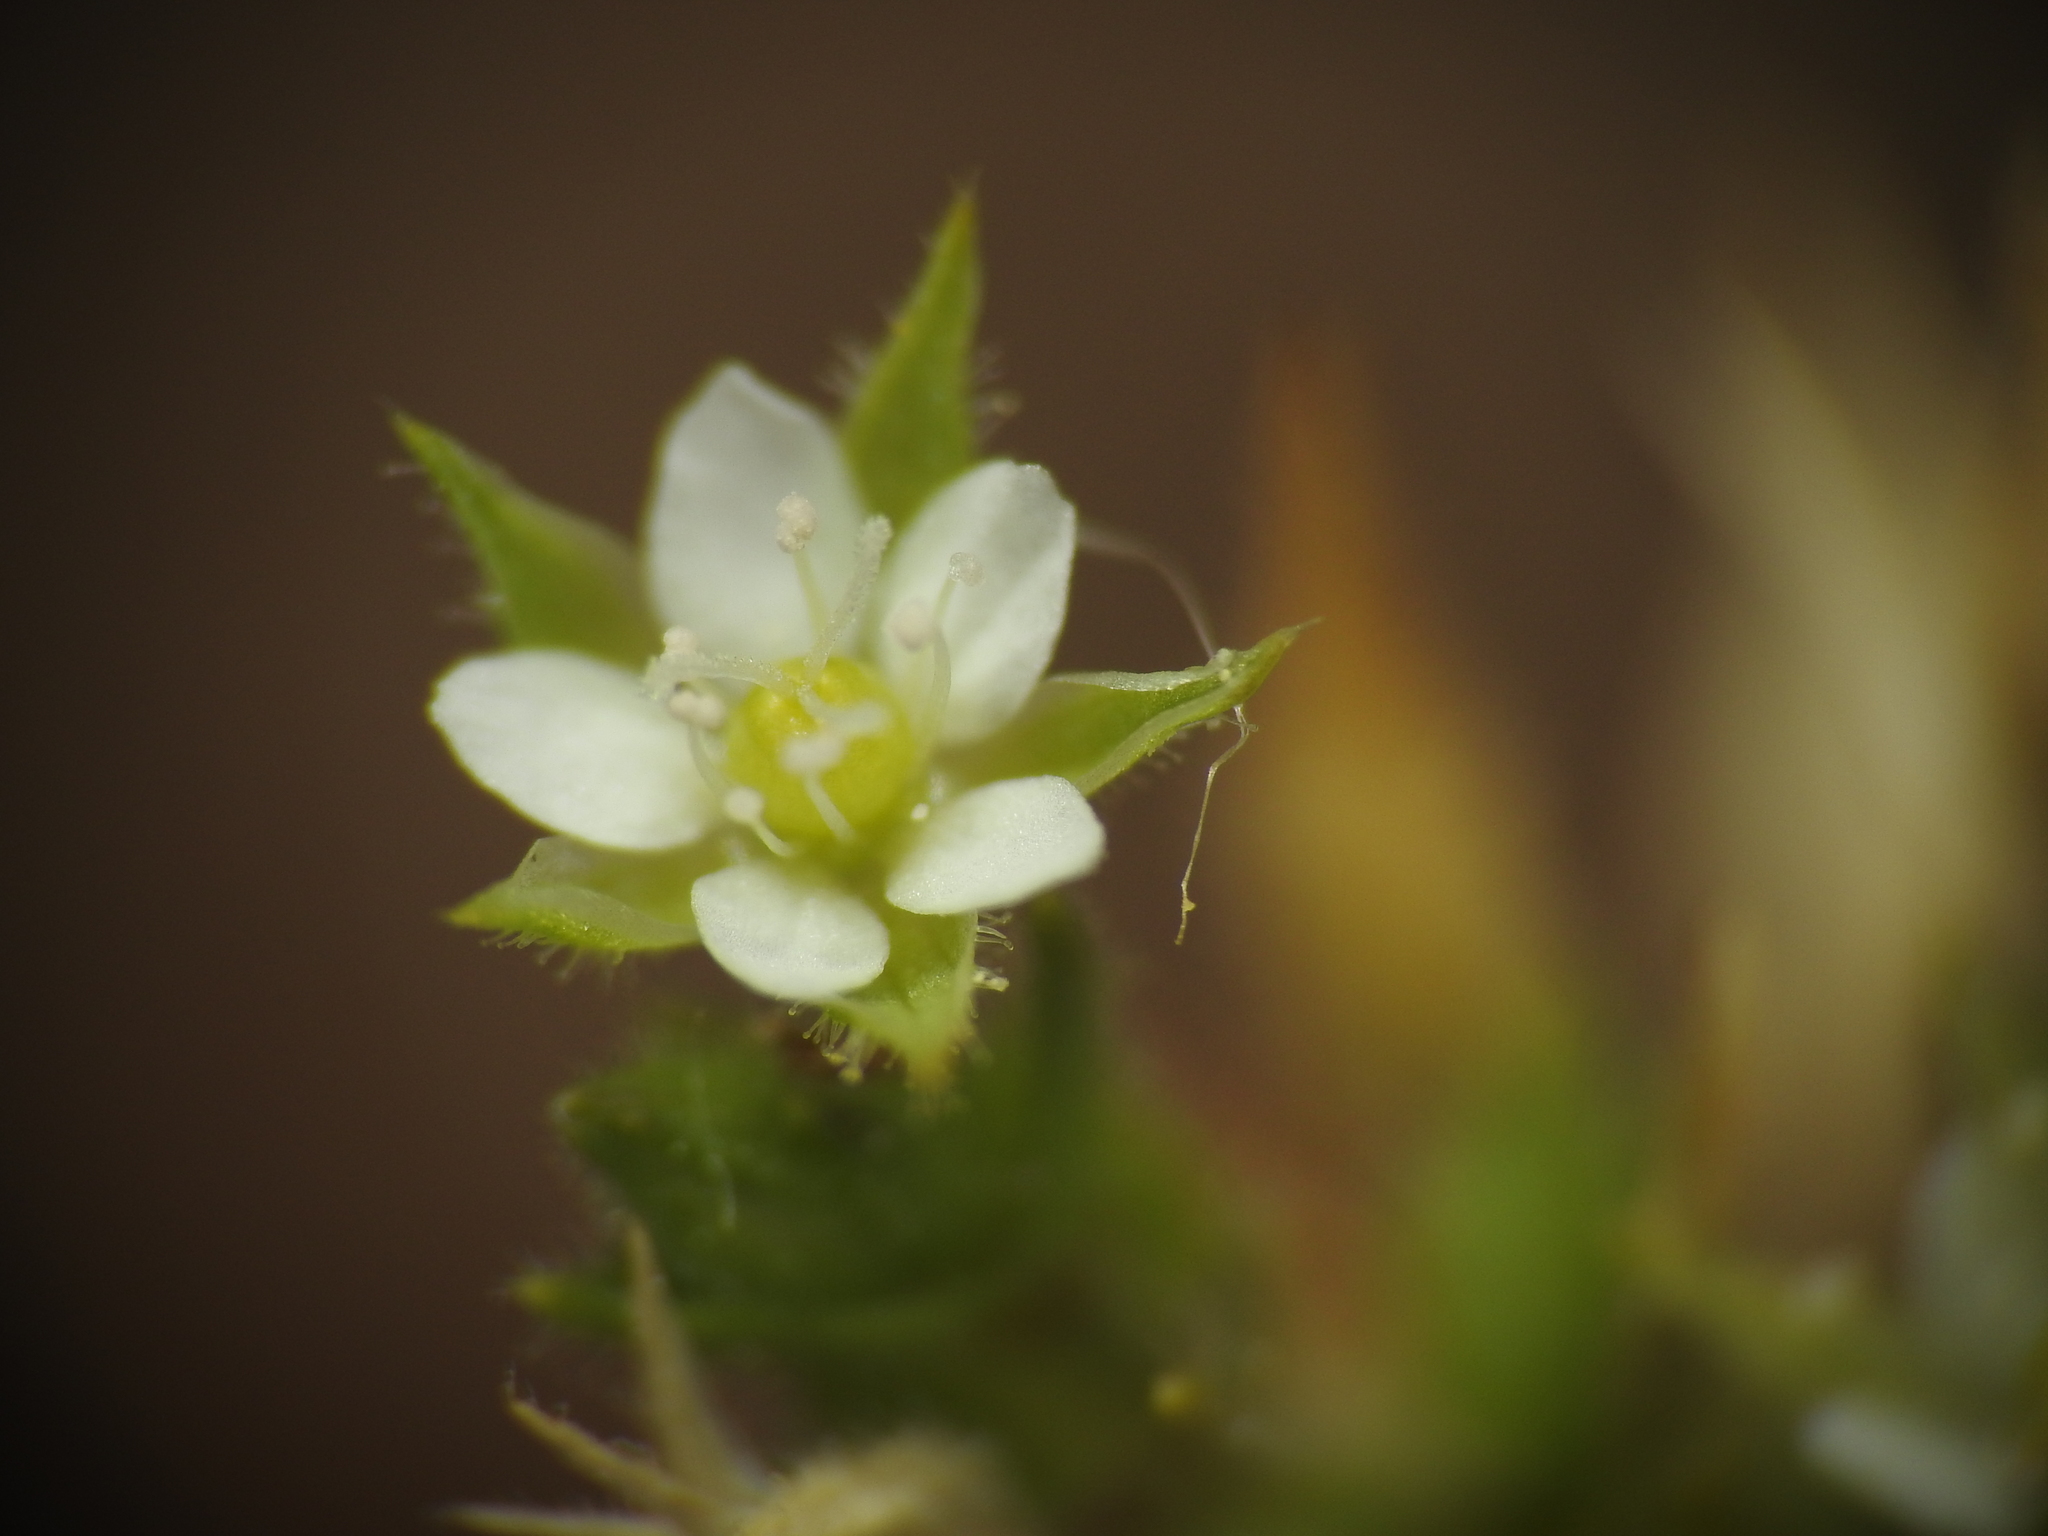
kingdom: Plantae
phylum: Tracheophyta
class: Magnoliopsida
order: Caryophyllales
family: Caryophyllaceae
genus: Arenaria
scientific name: Arenaria serpyllifolia
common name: Thyme-leaved sandwort
